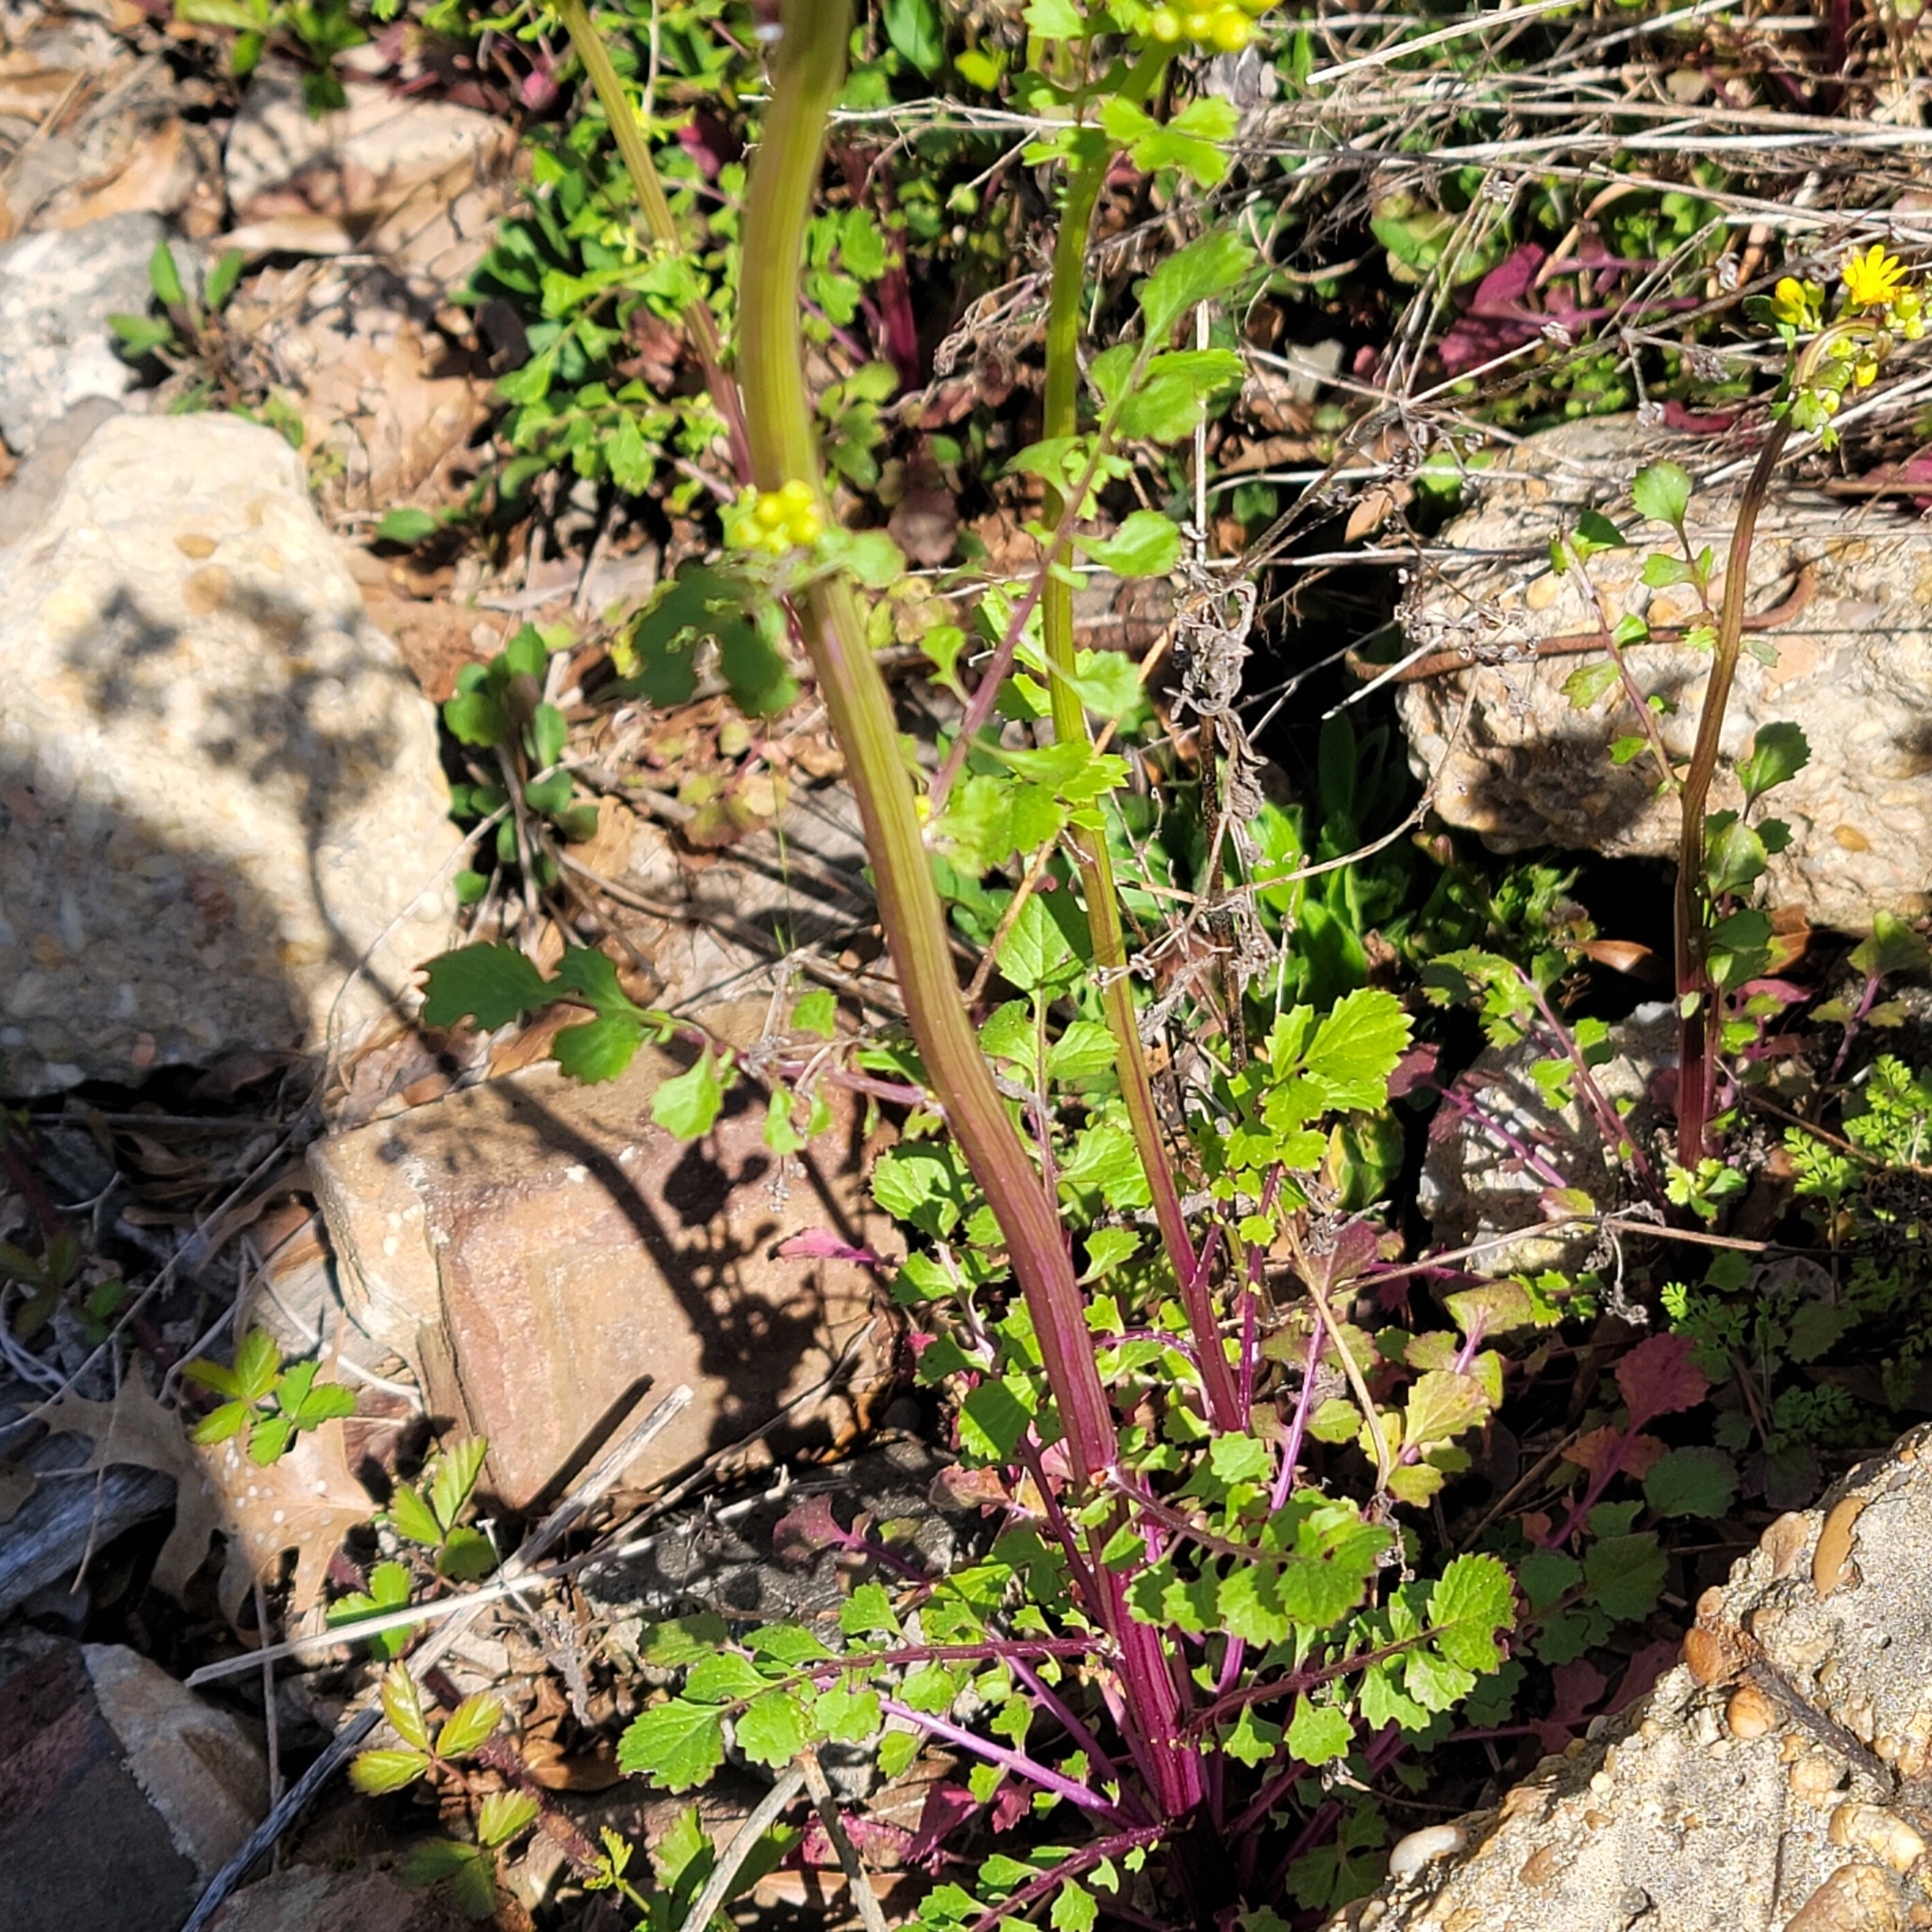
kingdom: Plantae
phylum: Tracheophyta
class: Magnoliopsida
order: Asterales
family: Asteraceae
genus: Packera
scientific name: Packera glabella
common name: Butterweed
